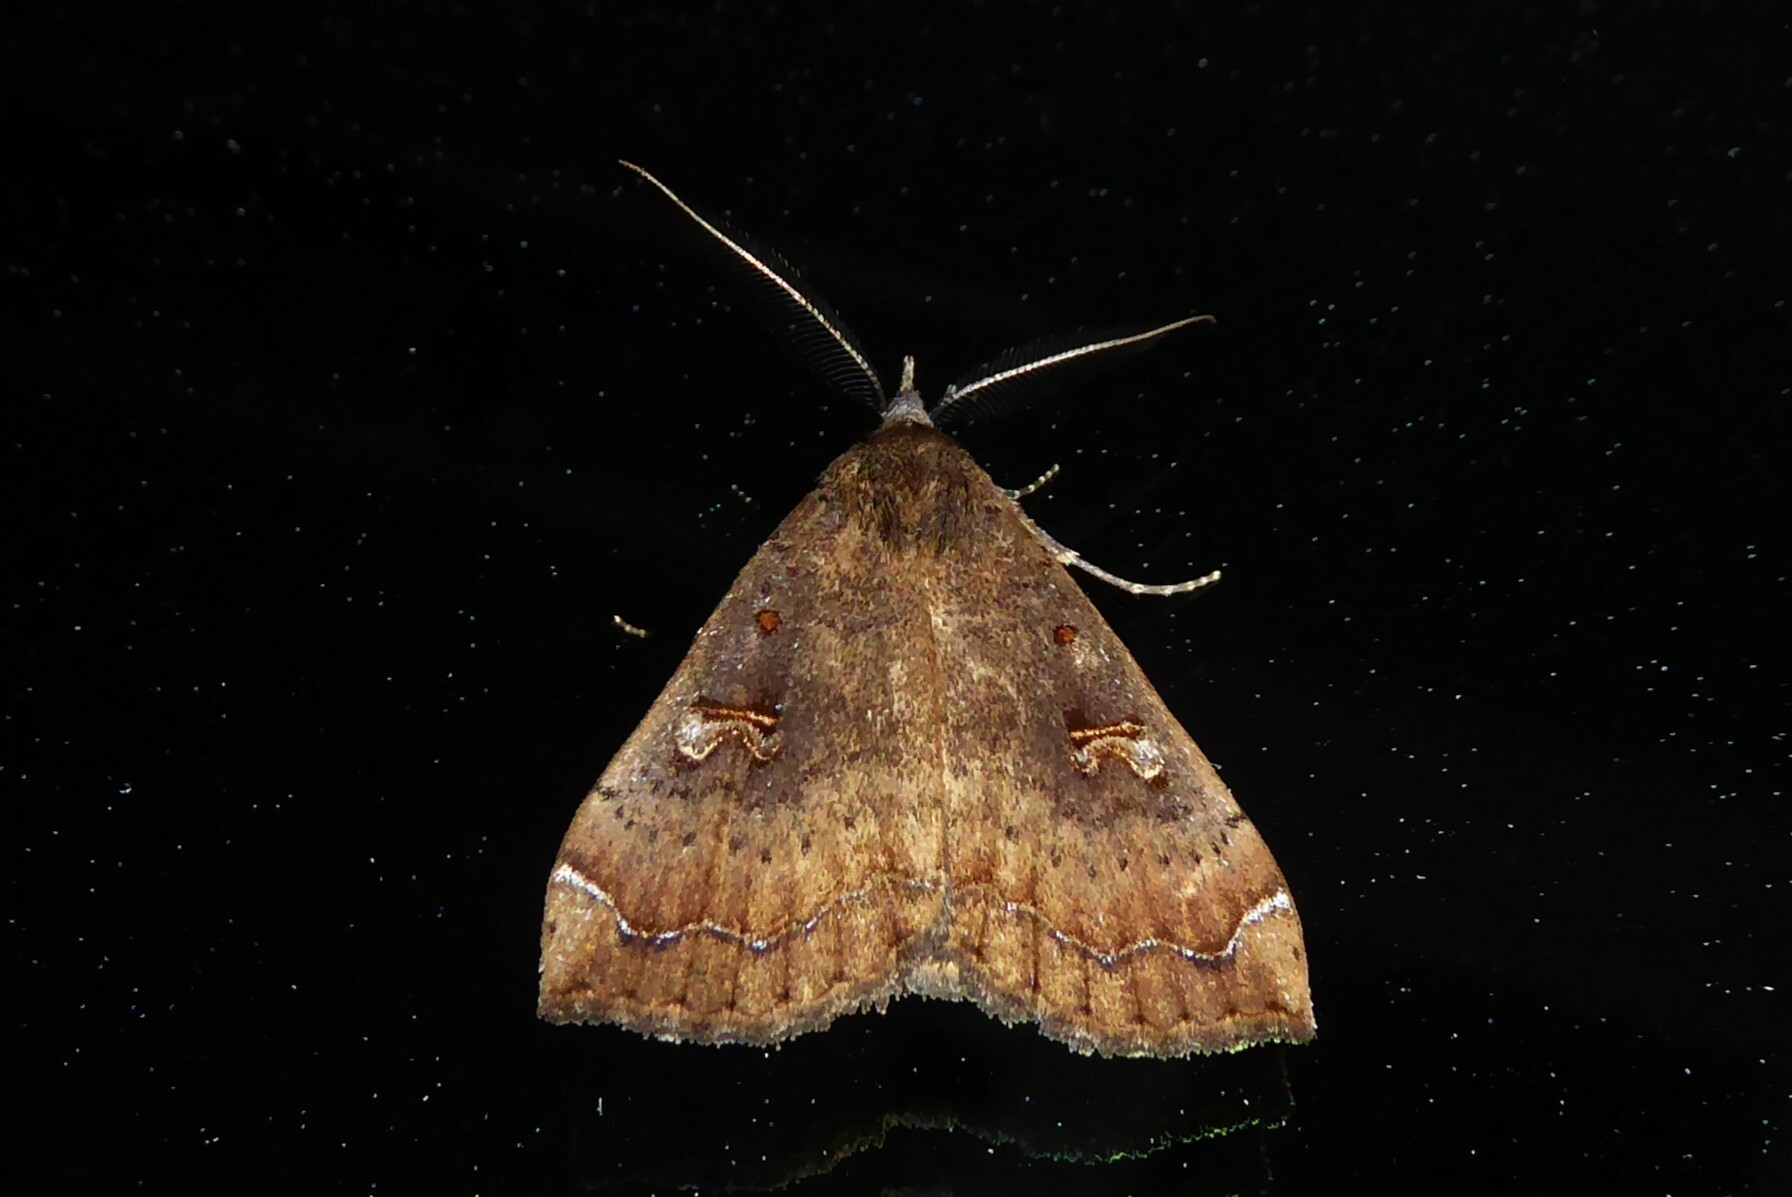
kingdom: Animalia
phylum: Arthropoda
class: Insecta
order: Lepidoptera
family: Erebidae
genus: Rhapsa
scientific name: Rhapsa scotosialis
